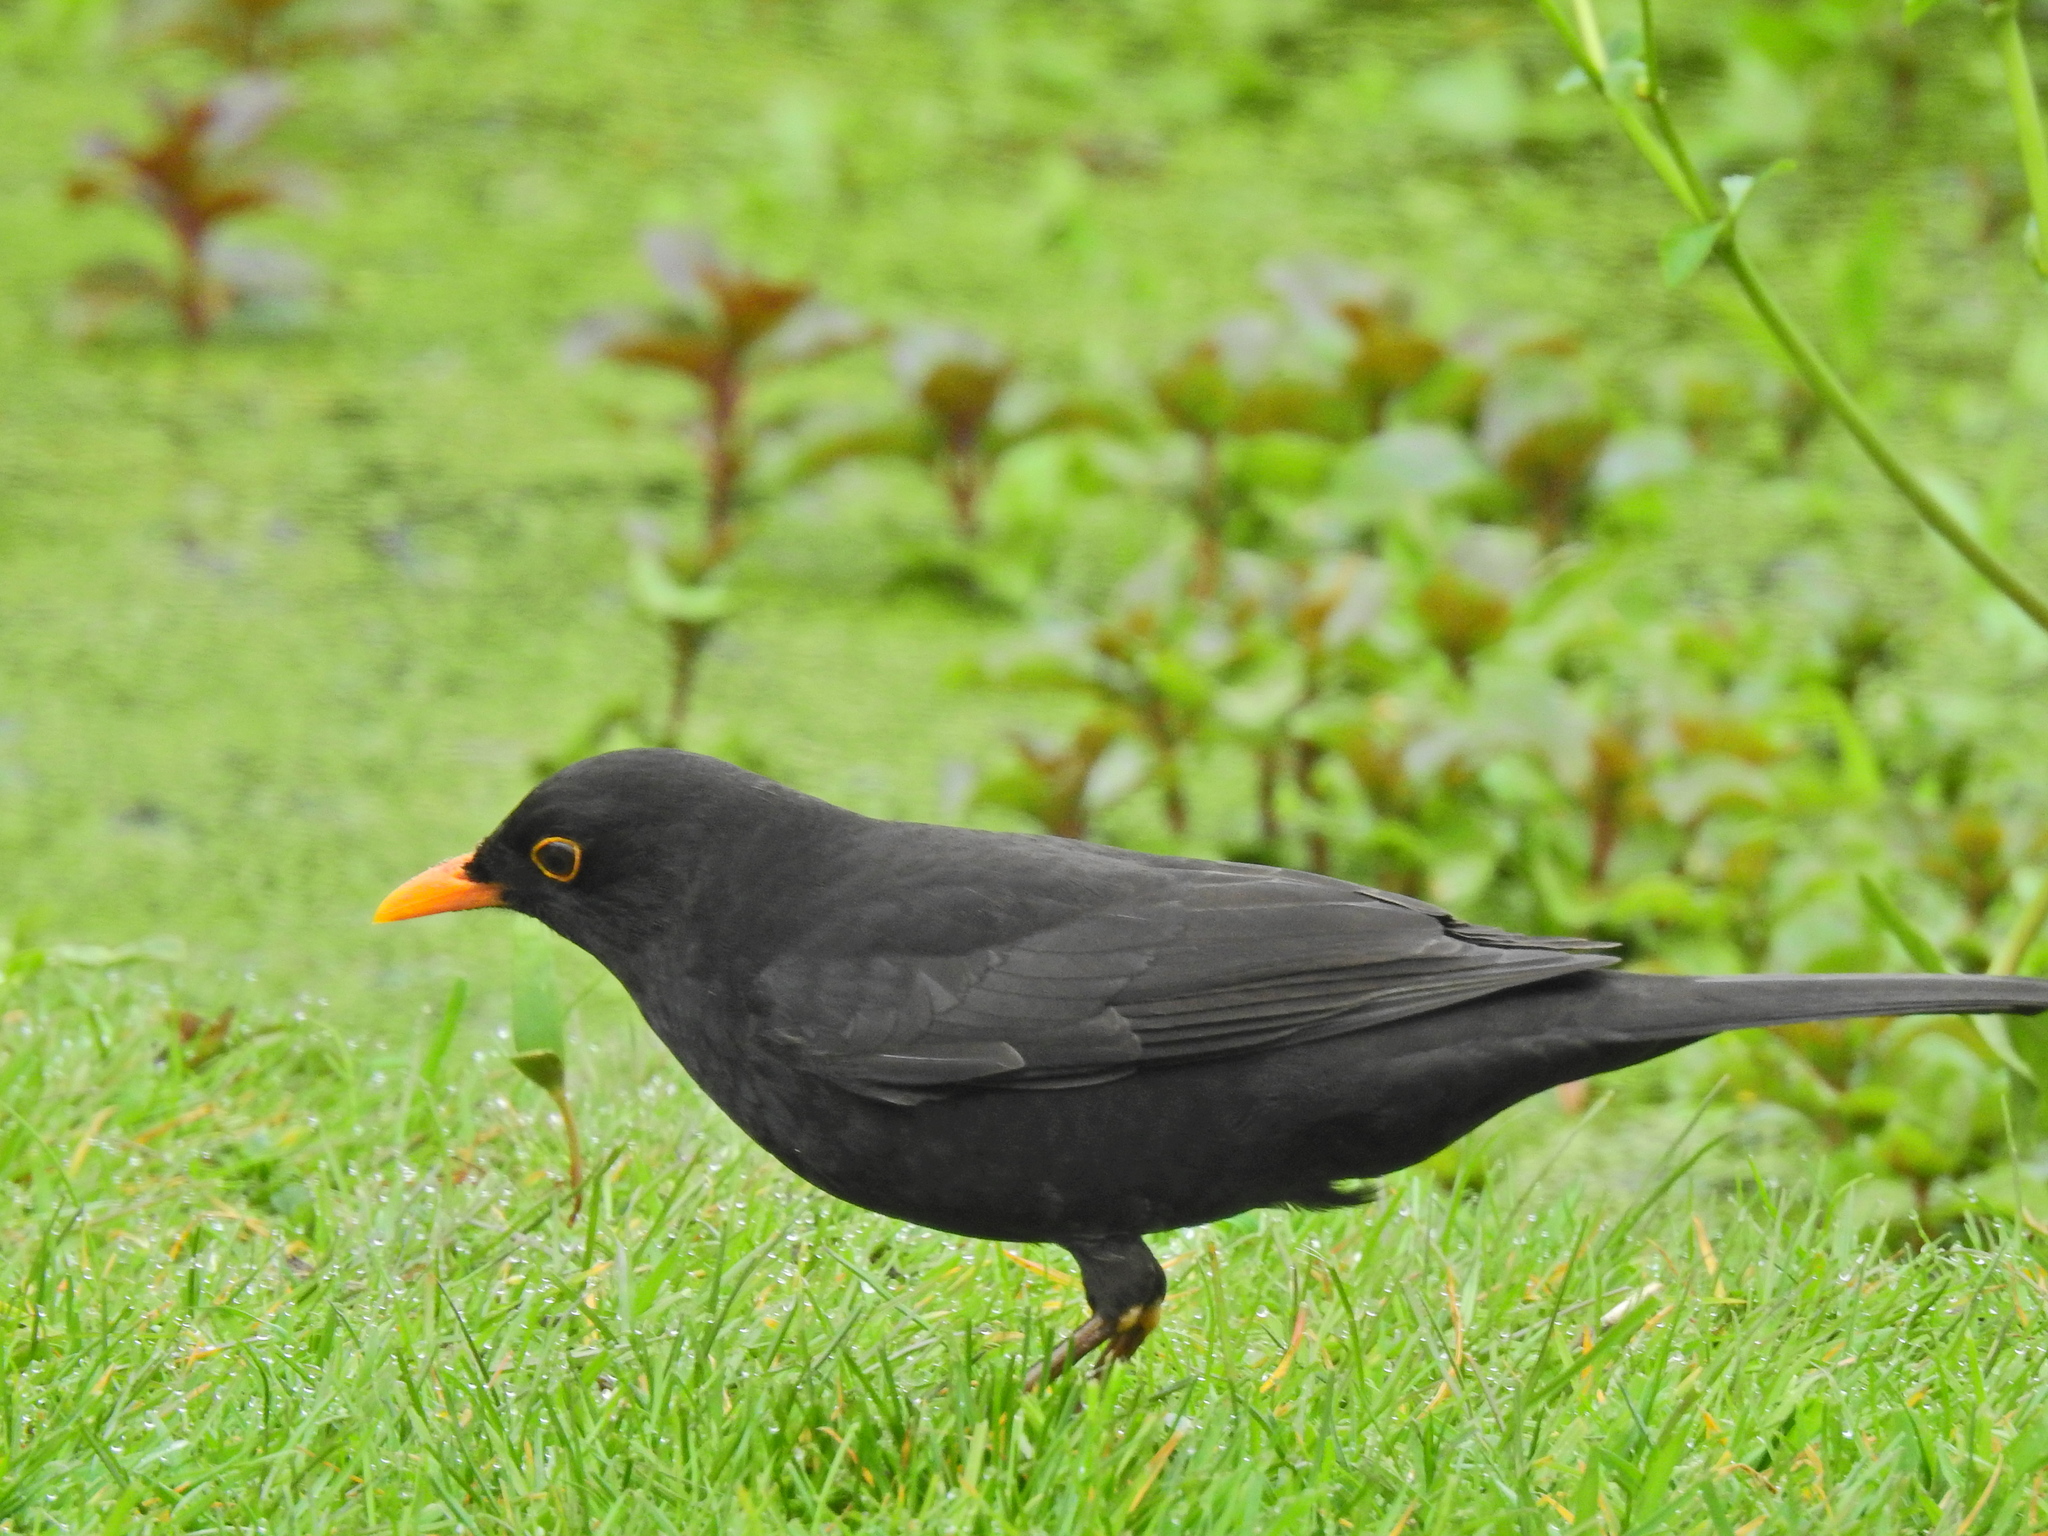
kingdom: Animalia
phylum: Chordata
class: Aves
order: Passeriformes
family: Turdidae
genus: Turdus
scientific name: Turdus merula
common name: Common blackbird
